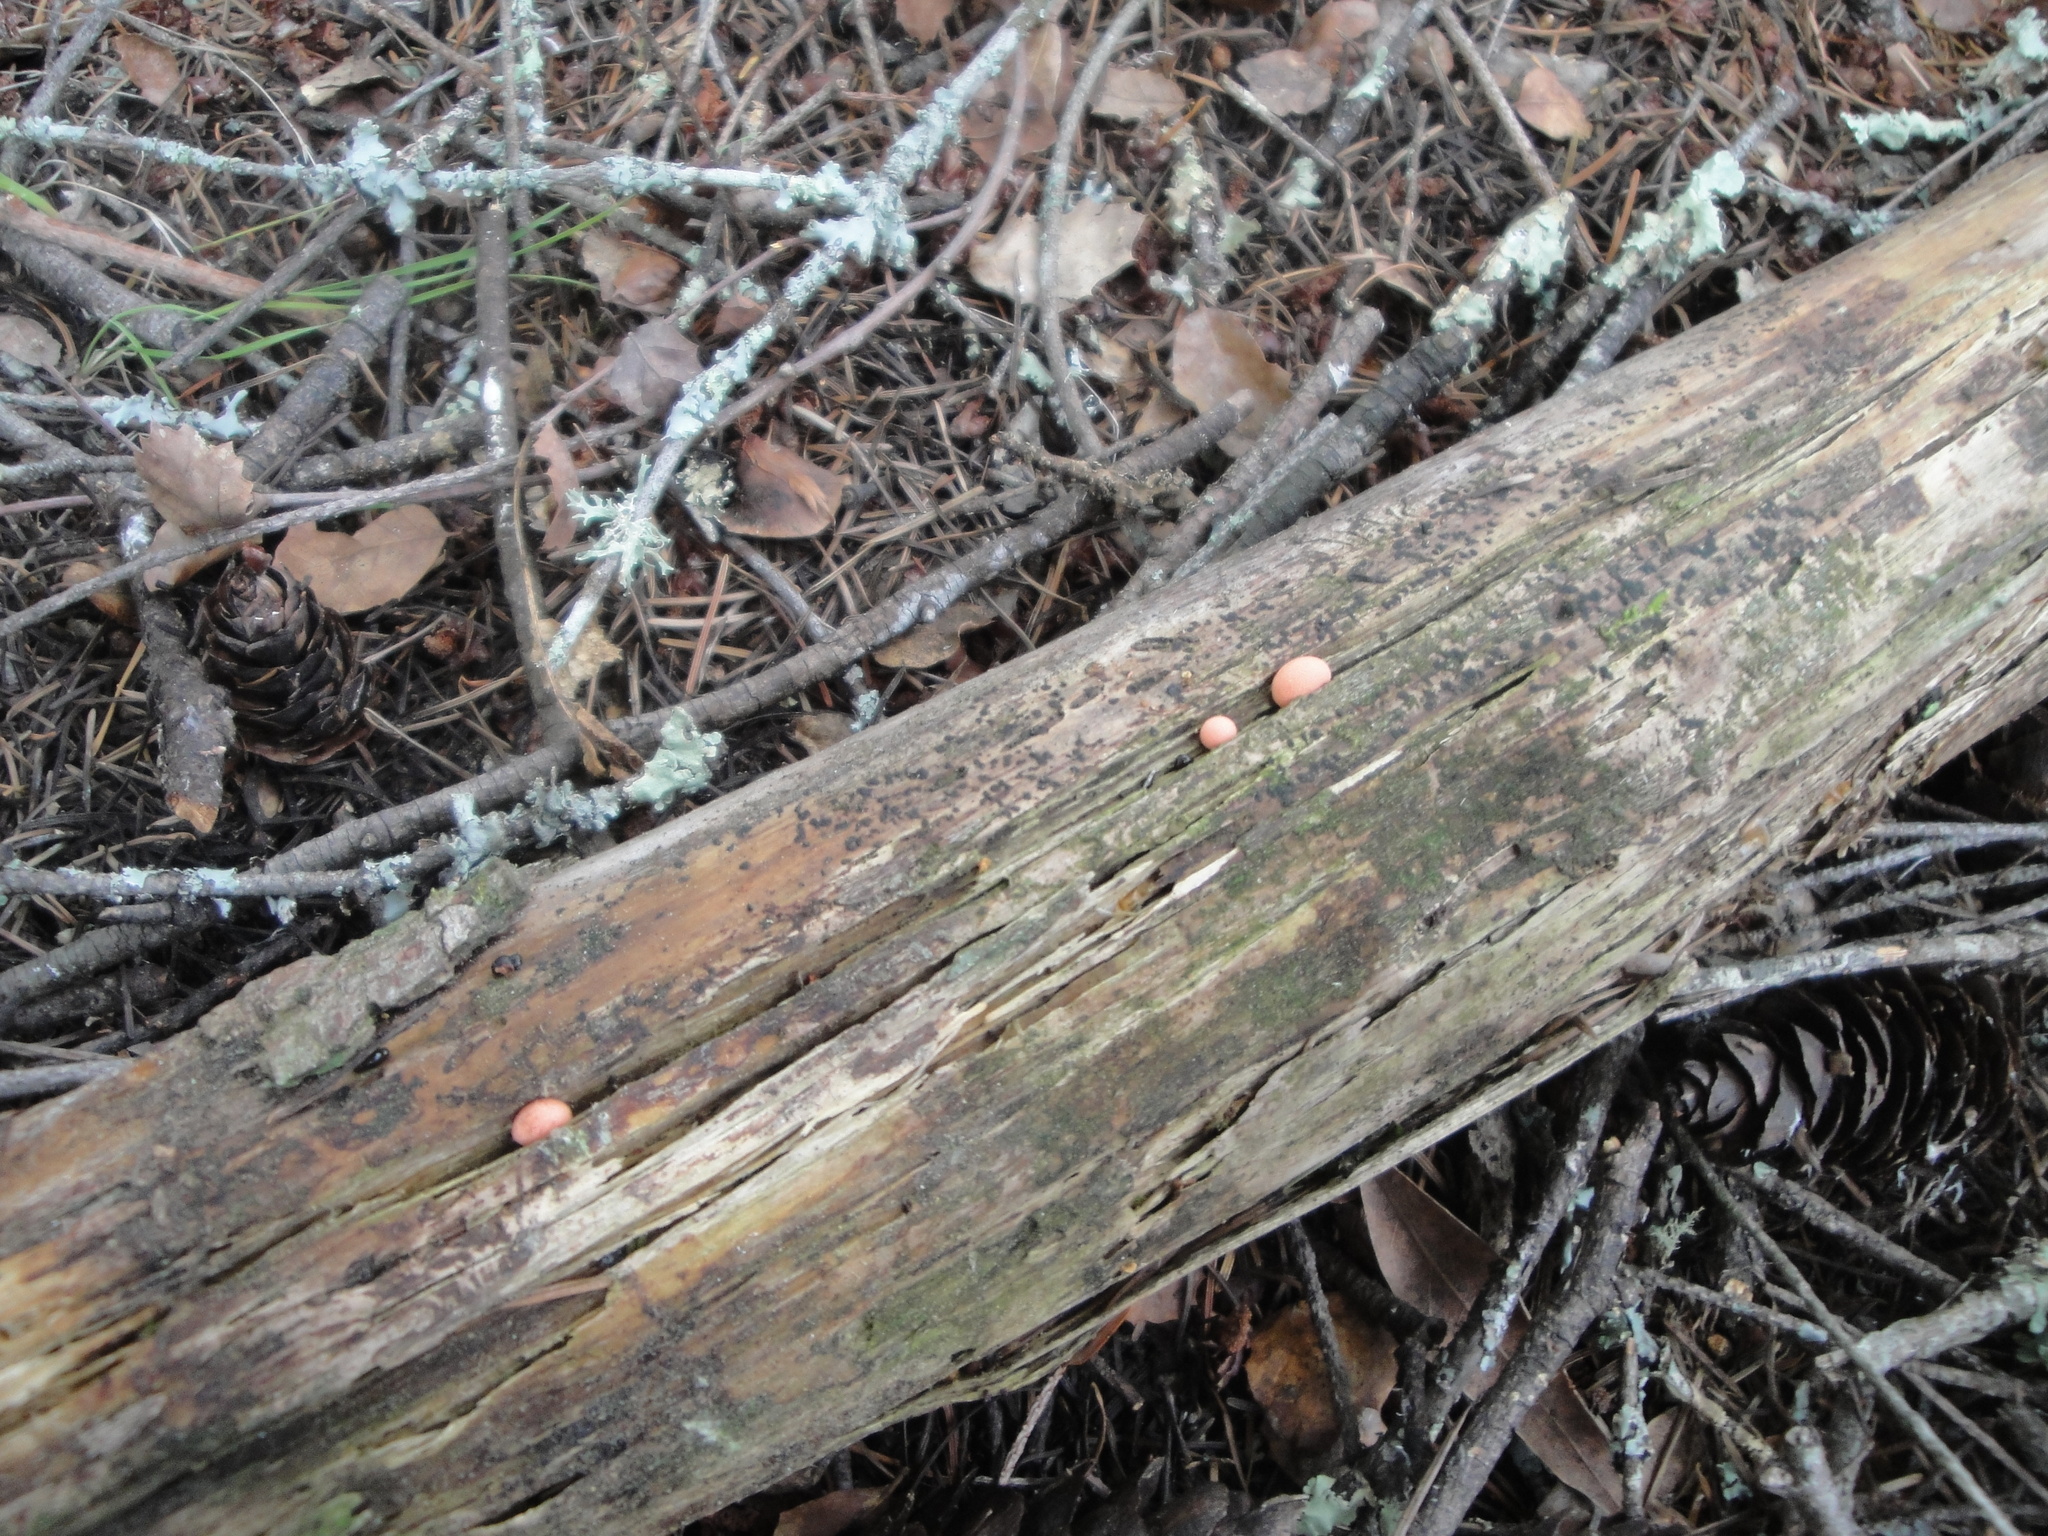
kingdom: Protozoa
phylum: Mycetozoa
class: Myxomycetes
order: Cribrariales
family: Tubiferaceae
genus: Lycogala
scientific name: Lycogala epidendrum
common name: Wolf's milk
